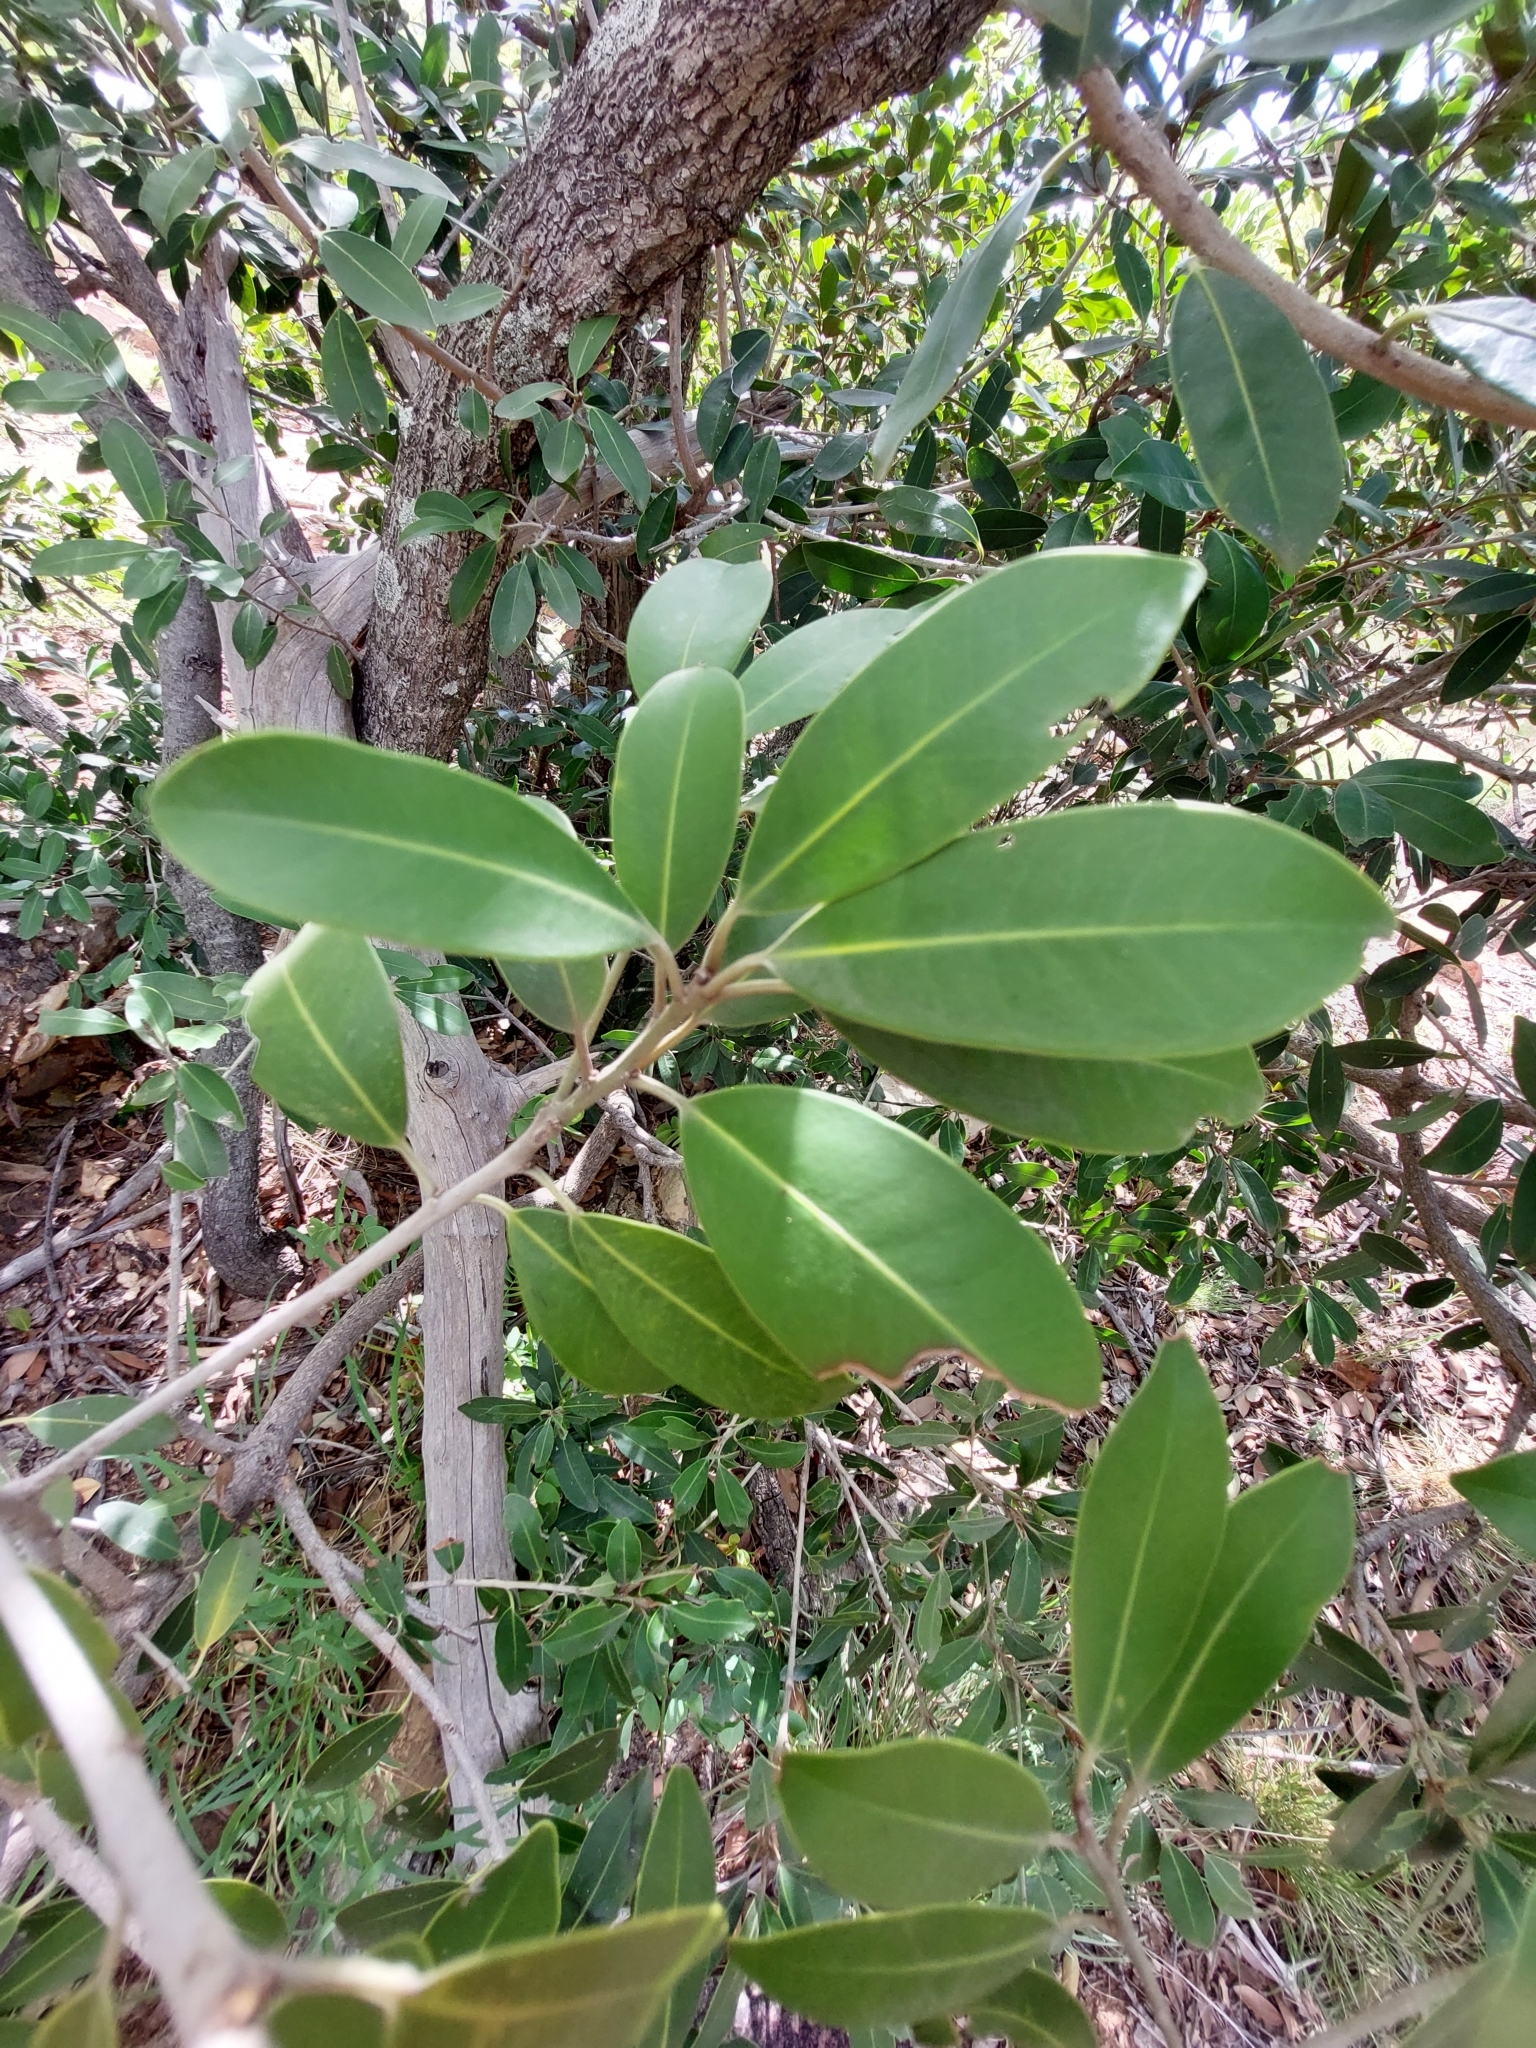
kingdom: Plantae
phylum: Tracheophyta
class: Magnoliopsida
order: Ericales
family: Sapotaceae
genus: Mimusops
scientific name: Mimusops zeyheri
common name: Transvaal red milkwood
